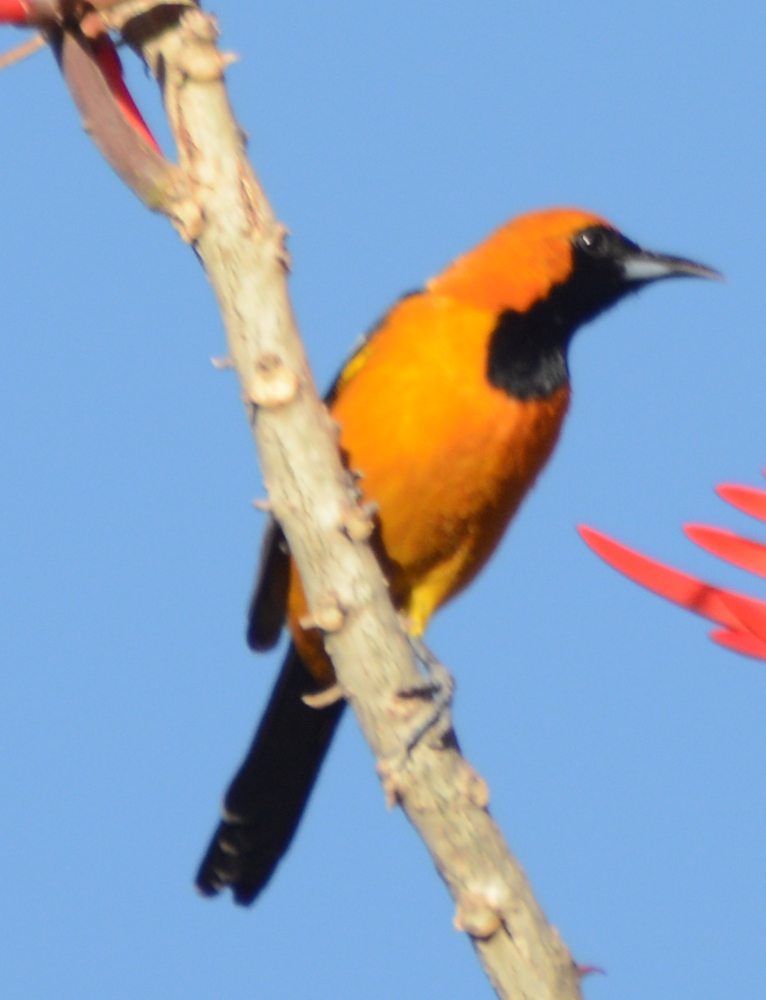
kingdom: Animalia
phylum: Chordata
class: Aves
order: Passeriformes
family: Icteridae
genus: Icterus
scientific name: Icterus cucullatus
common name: Hooded oriole
